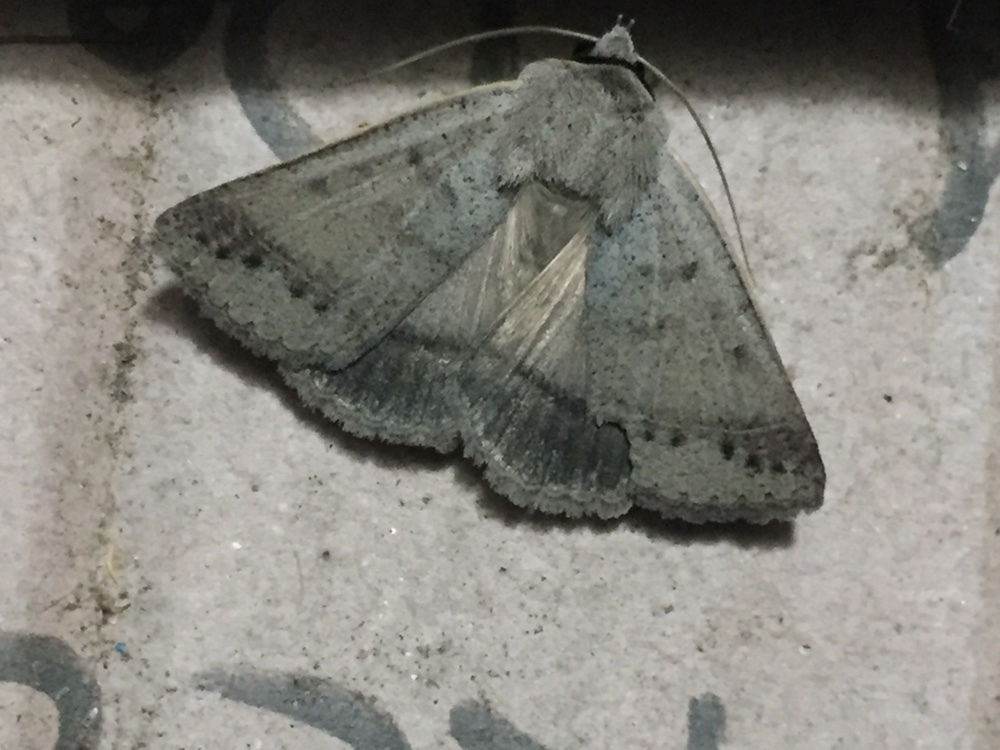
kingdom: Animalia
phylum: Arthropoda
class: Insecta
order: Lepidoptera
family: Erebidae
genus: Pantydia
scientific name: Pantydia sparsa
